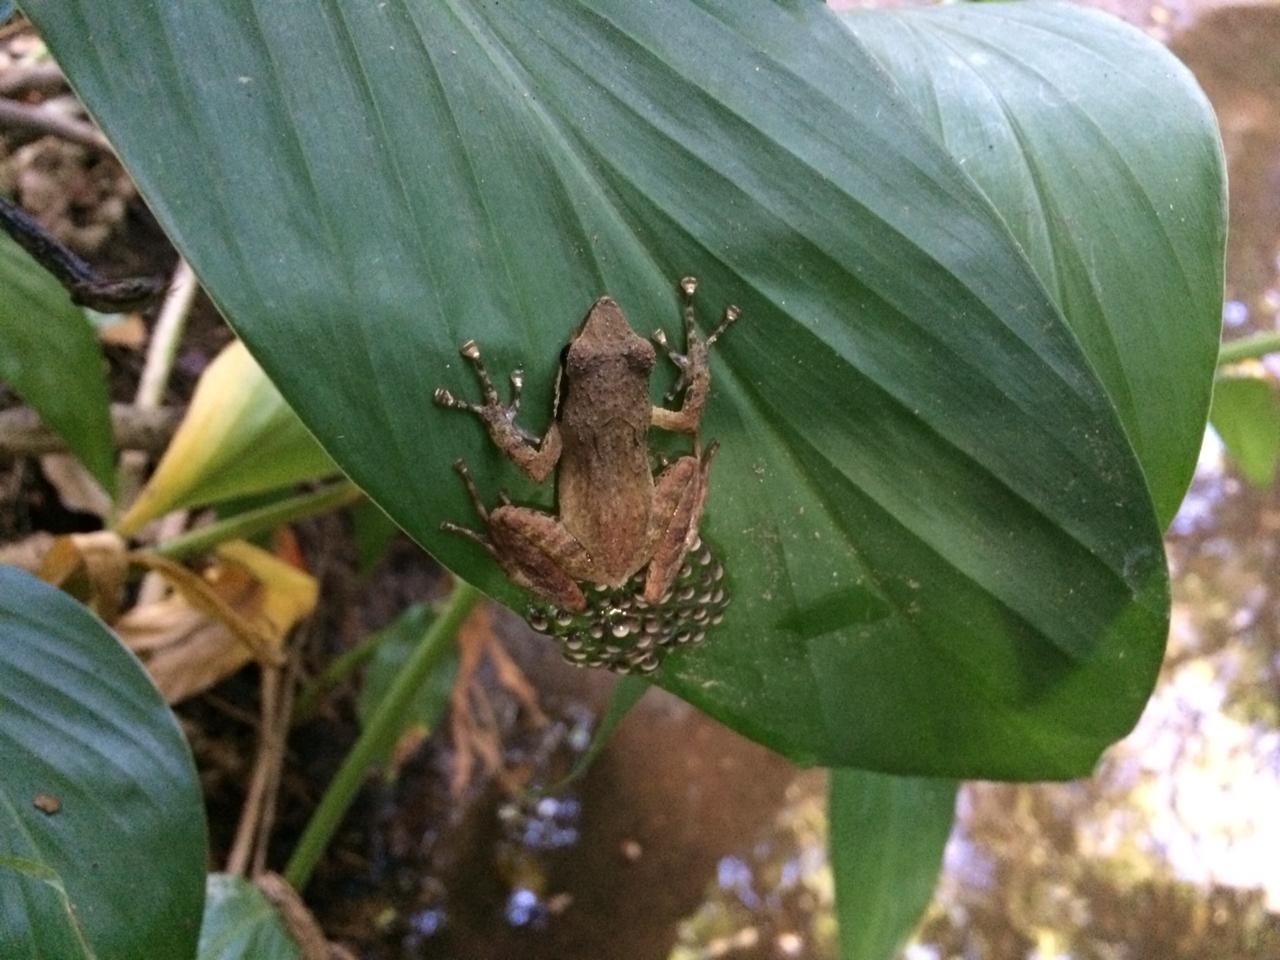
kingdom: Animalia
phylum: Chordata
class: Amphibia
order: Anura
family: Pyxicephalidae
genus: Natalobatrachus
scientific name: Natalobatrachus bonebergi
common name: Natal diving frog
